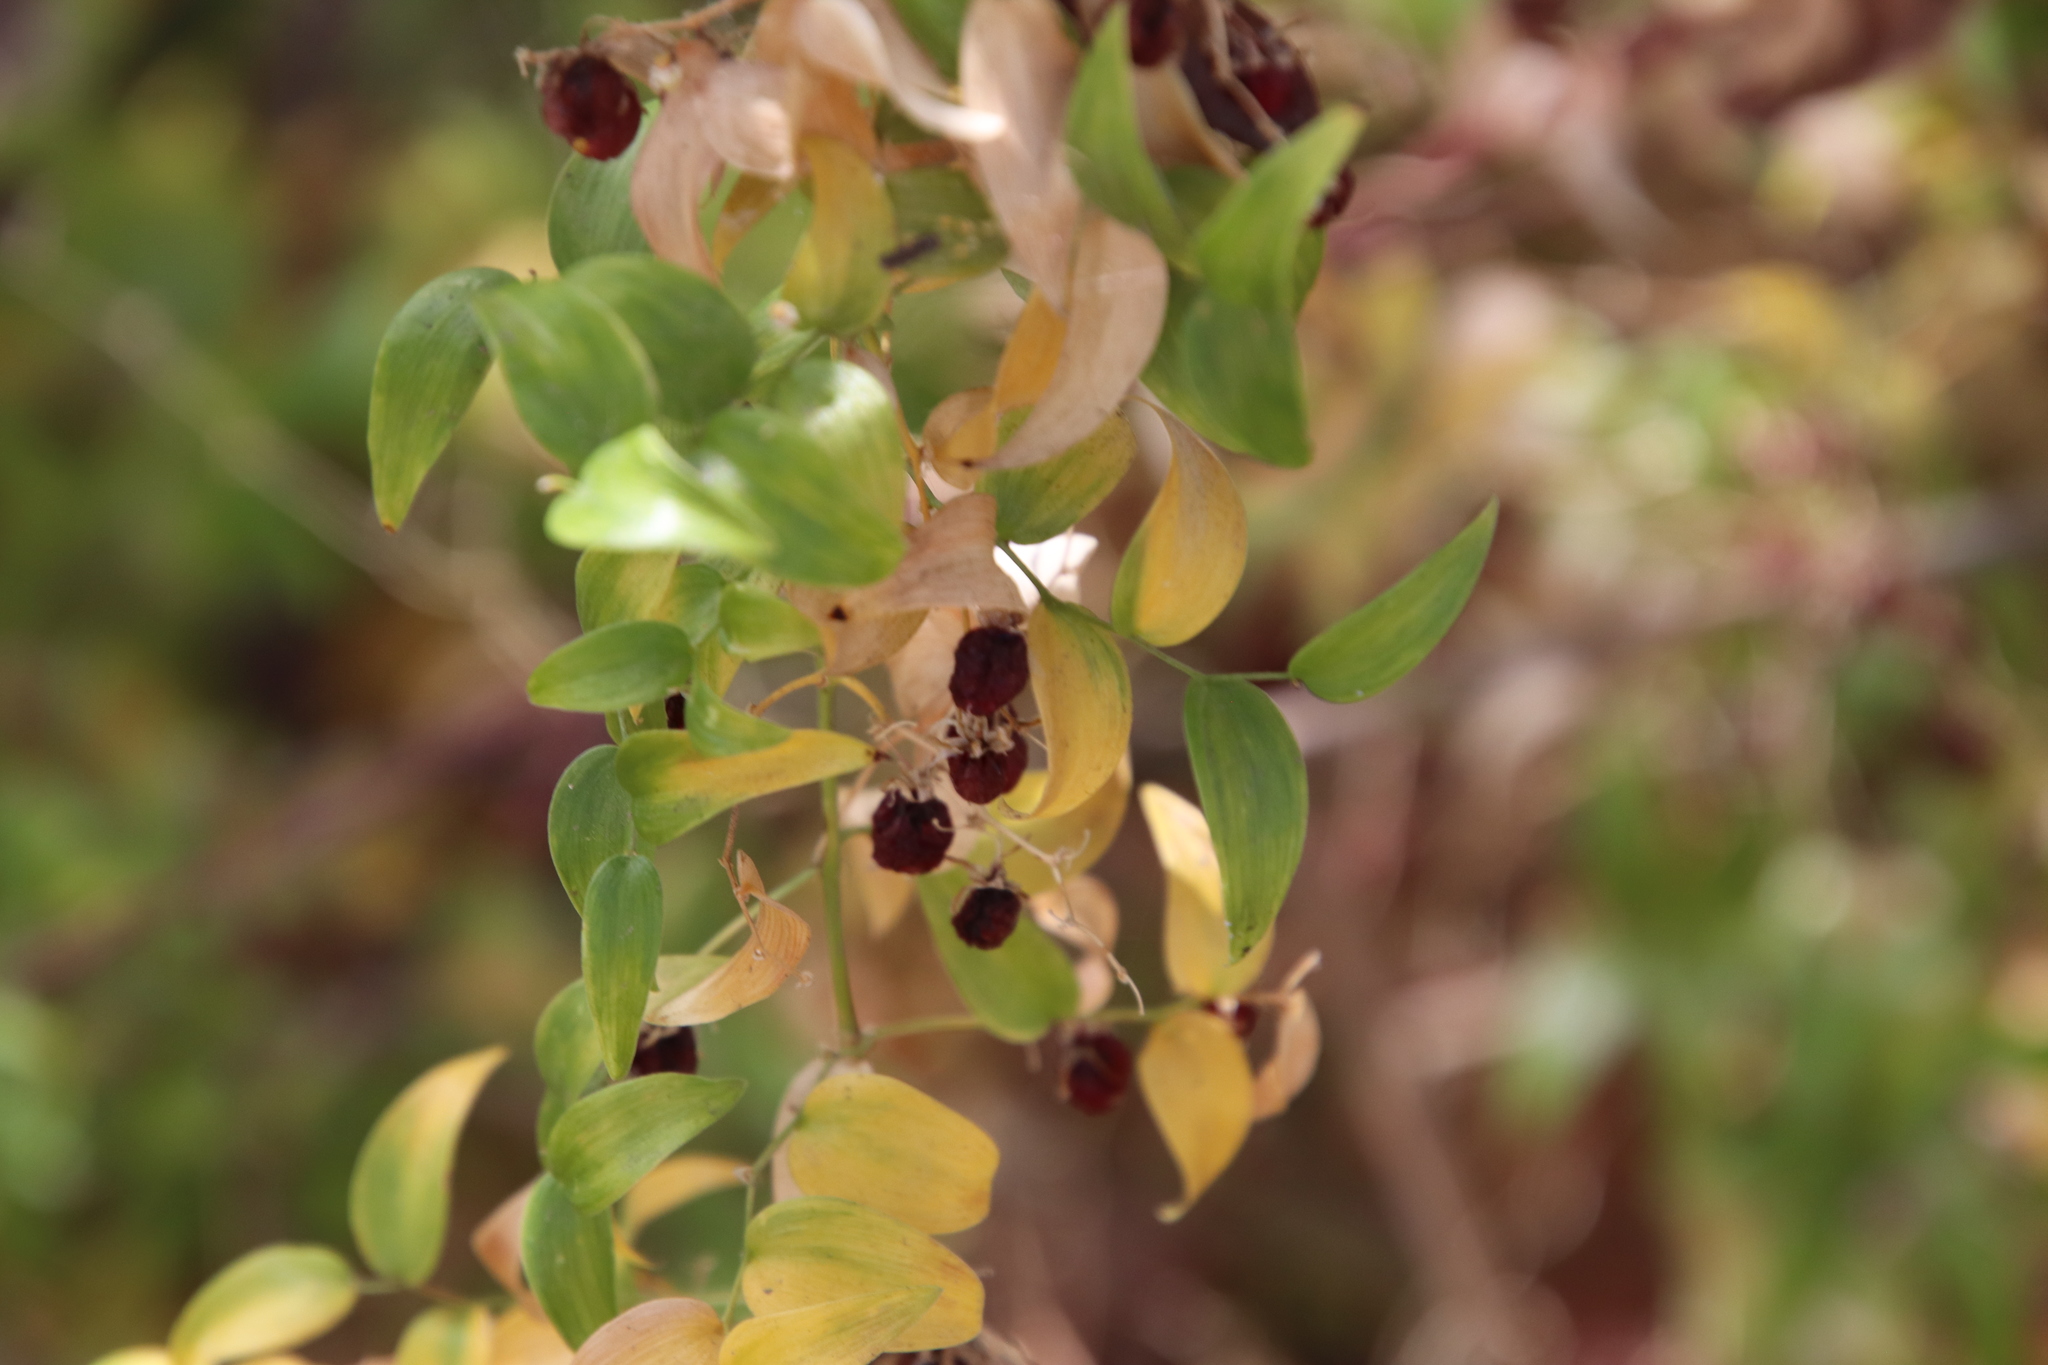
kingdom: Plantae
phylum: Tracheophyta
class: Liliopsida
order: Asparagales
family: Asparagaceae
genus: Asparagus
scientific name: Asparagus asparagoides
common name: African asparagus fern
